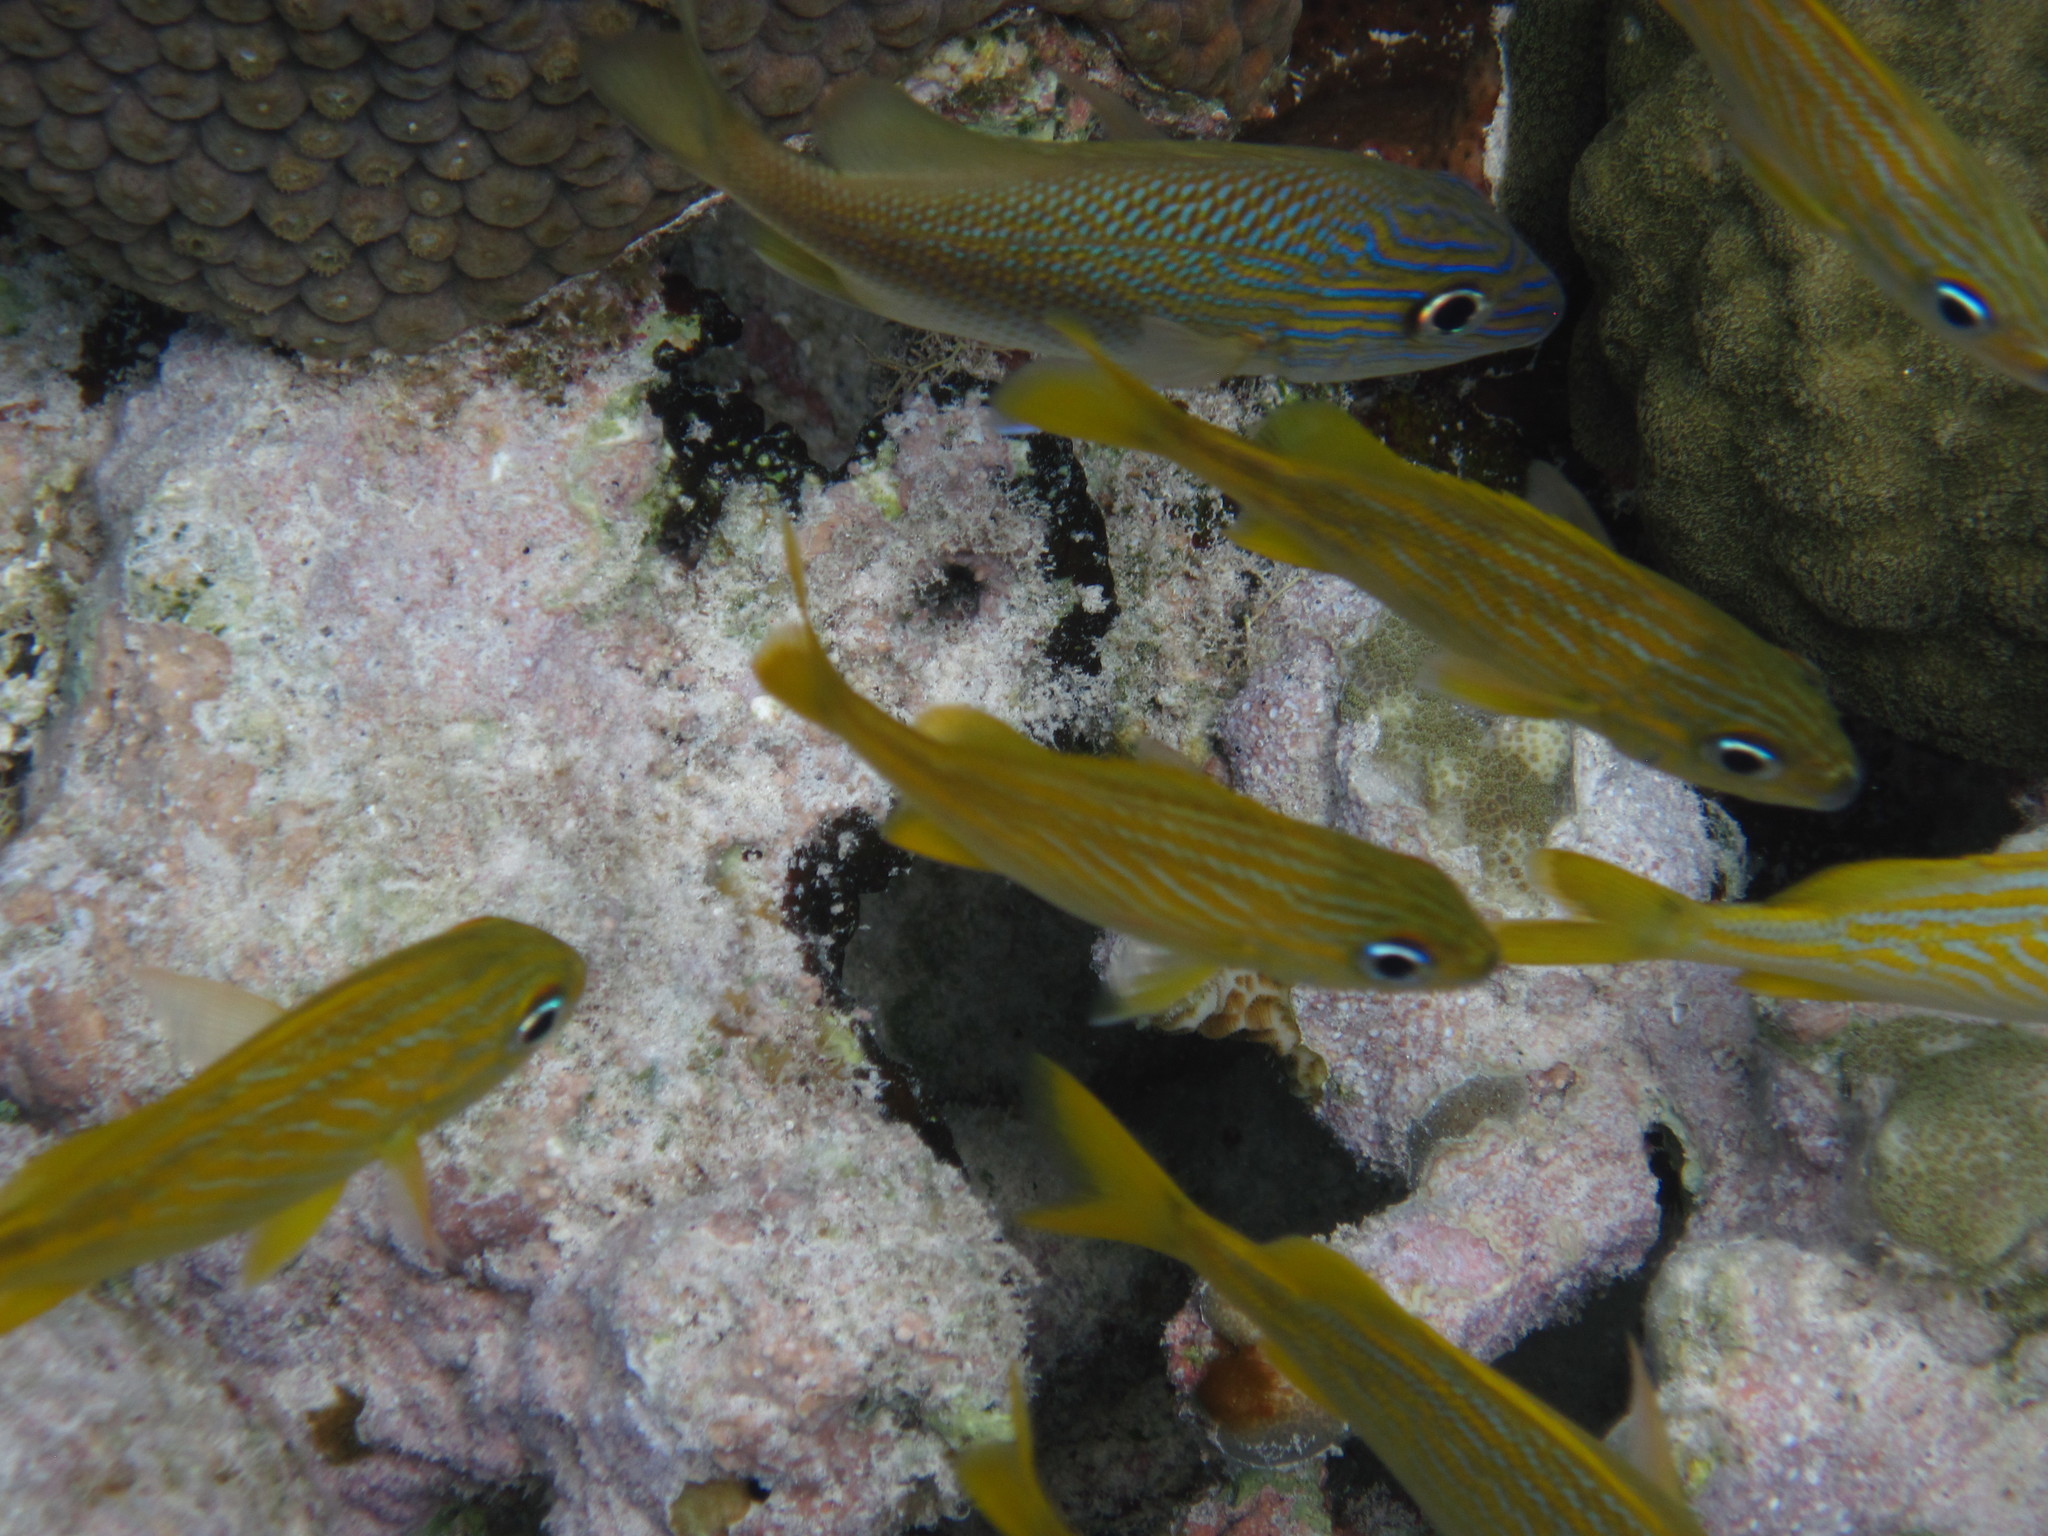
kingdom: Animalia
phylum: Chordata
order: Perciformes
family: Haemulidae
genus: Haemulon
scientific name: Haemulon flavolineatum
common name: French grunt
